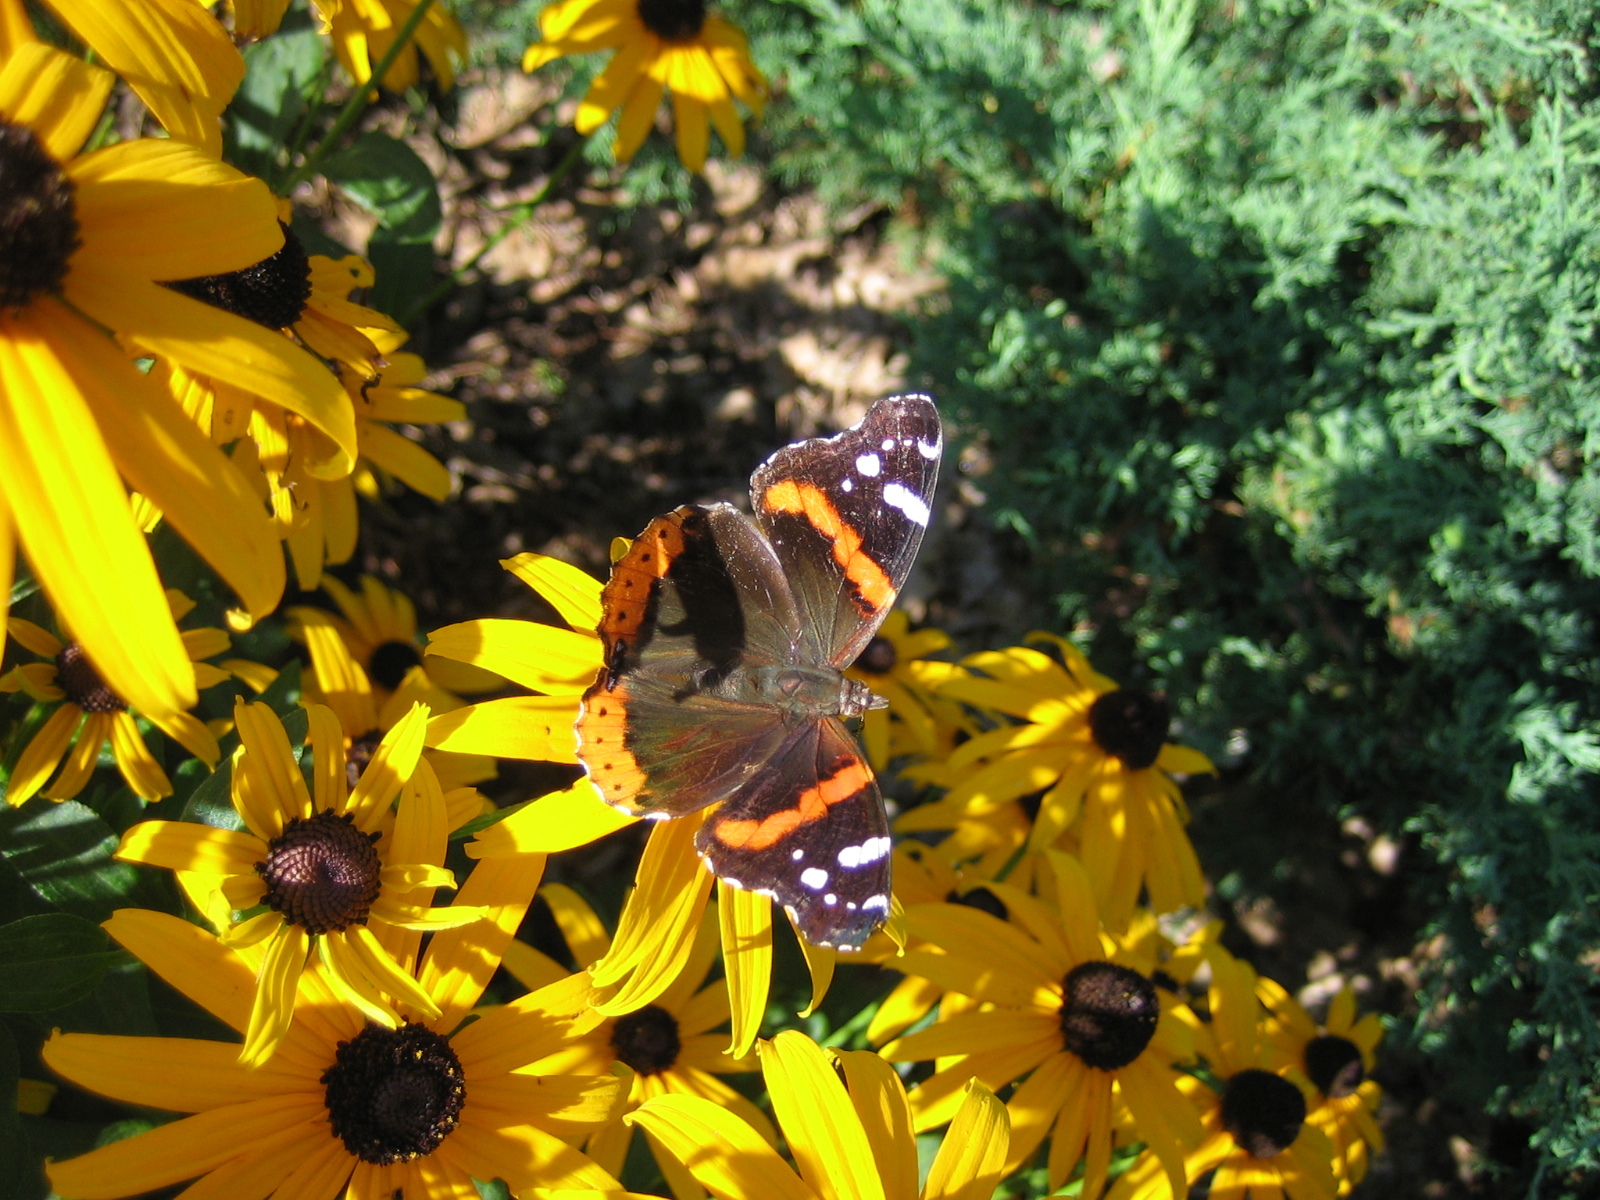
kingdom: Animalia
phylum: Arthropoda
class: Insecta
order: Lepidoptera
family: Nymphalidae
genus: Vanessa
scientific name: Vanessa atalanta
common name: Red admiral
